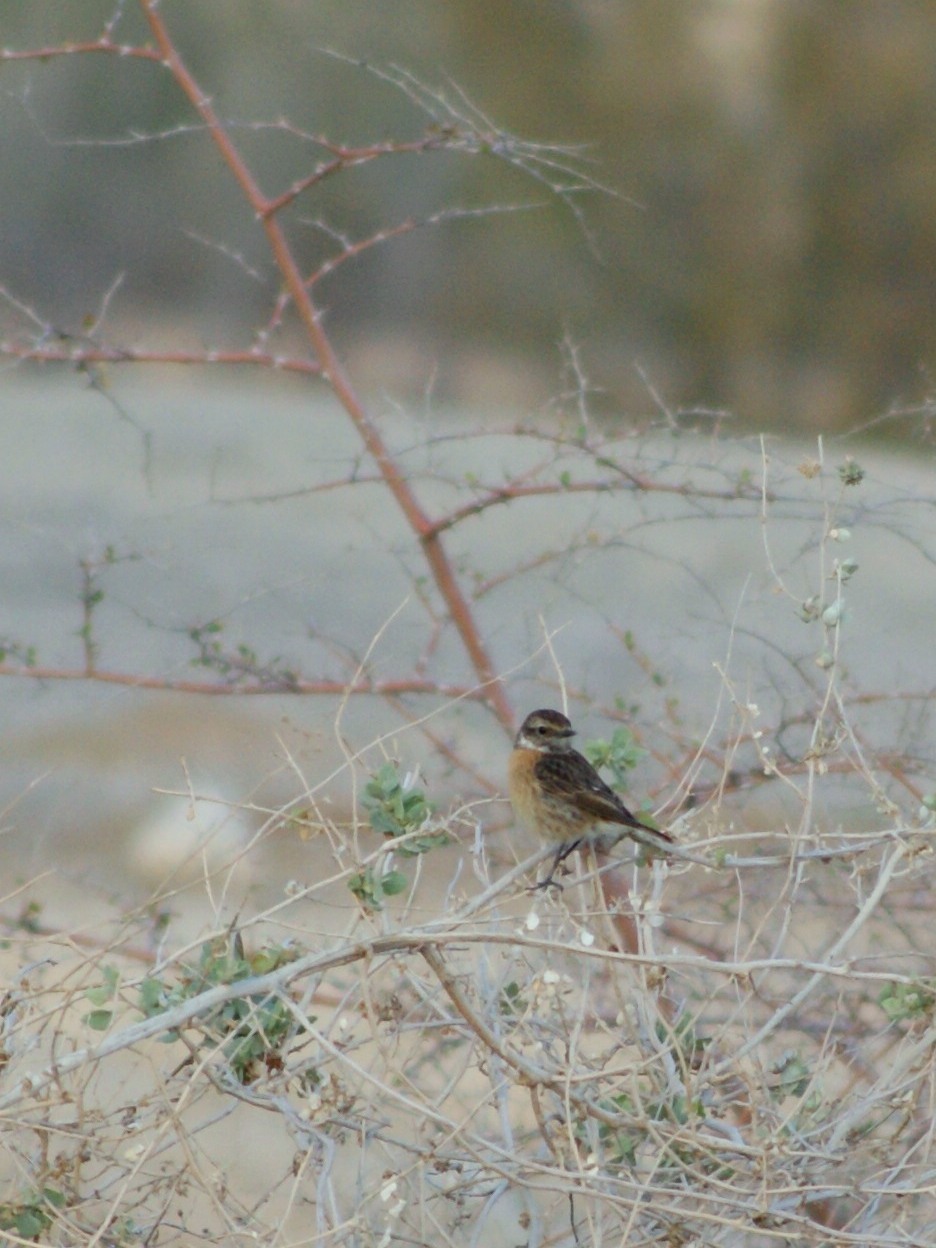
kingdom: Animalia
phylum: Chordata
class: Aves
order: Passeriformes
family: Muscicapidae
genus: Saxicola
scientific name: Saxicola rubicola
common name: European stonechat
